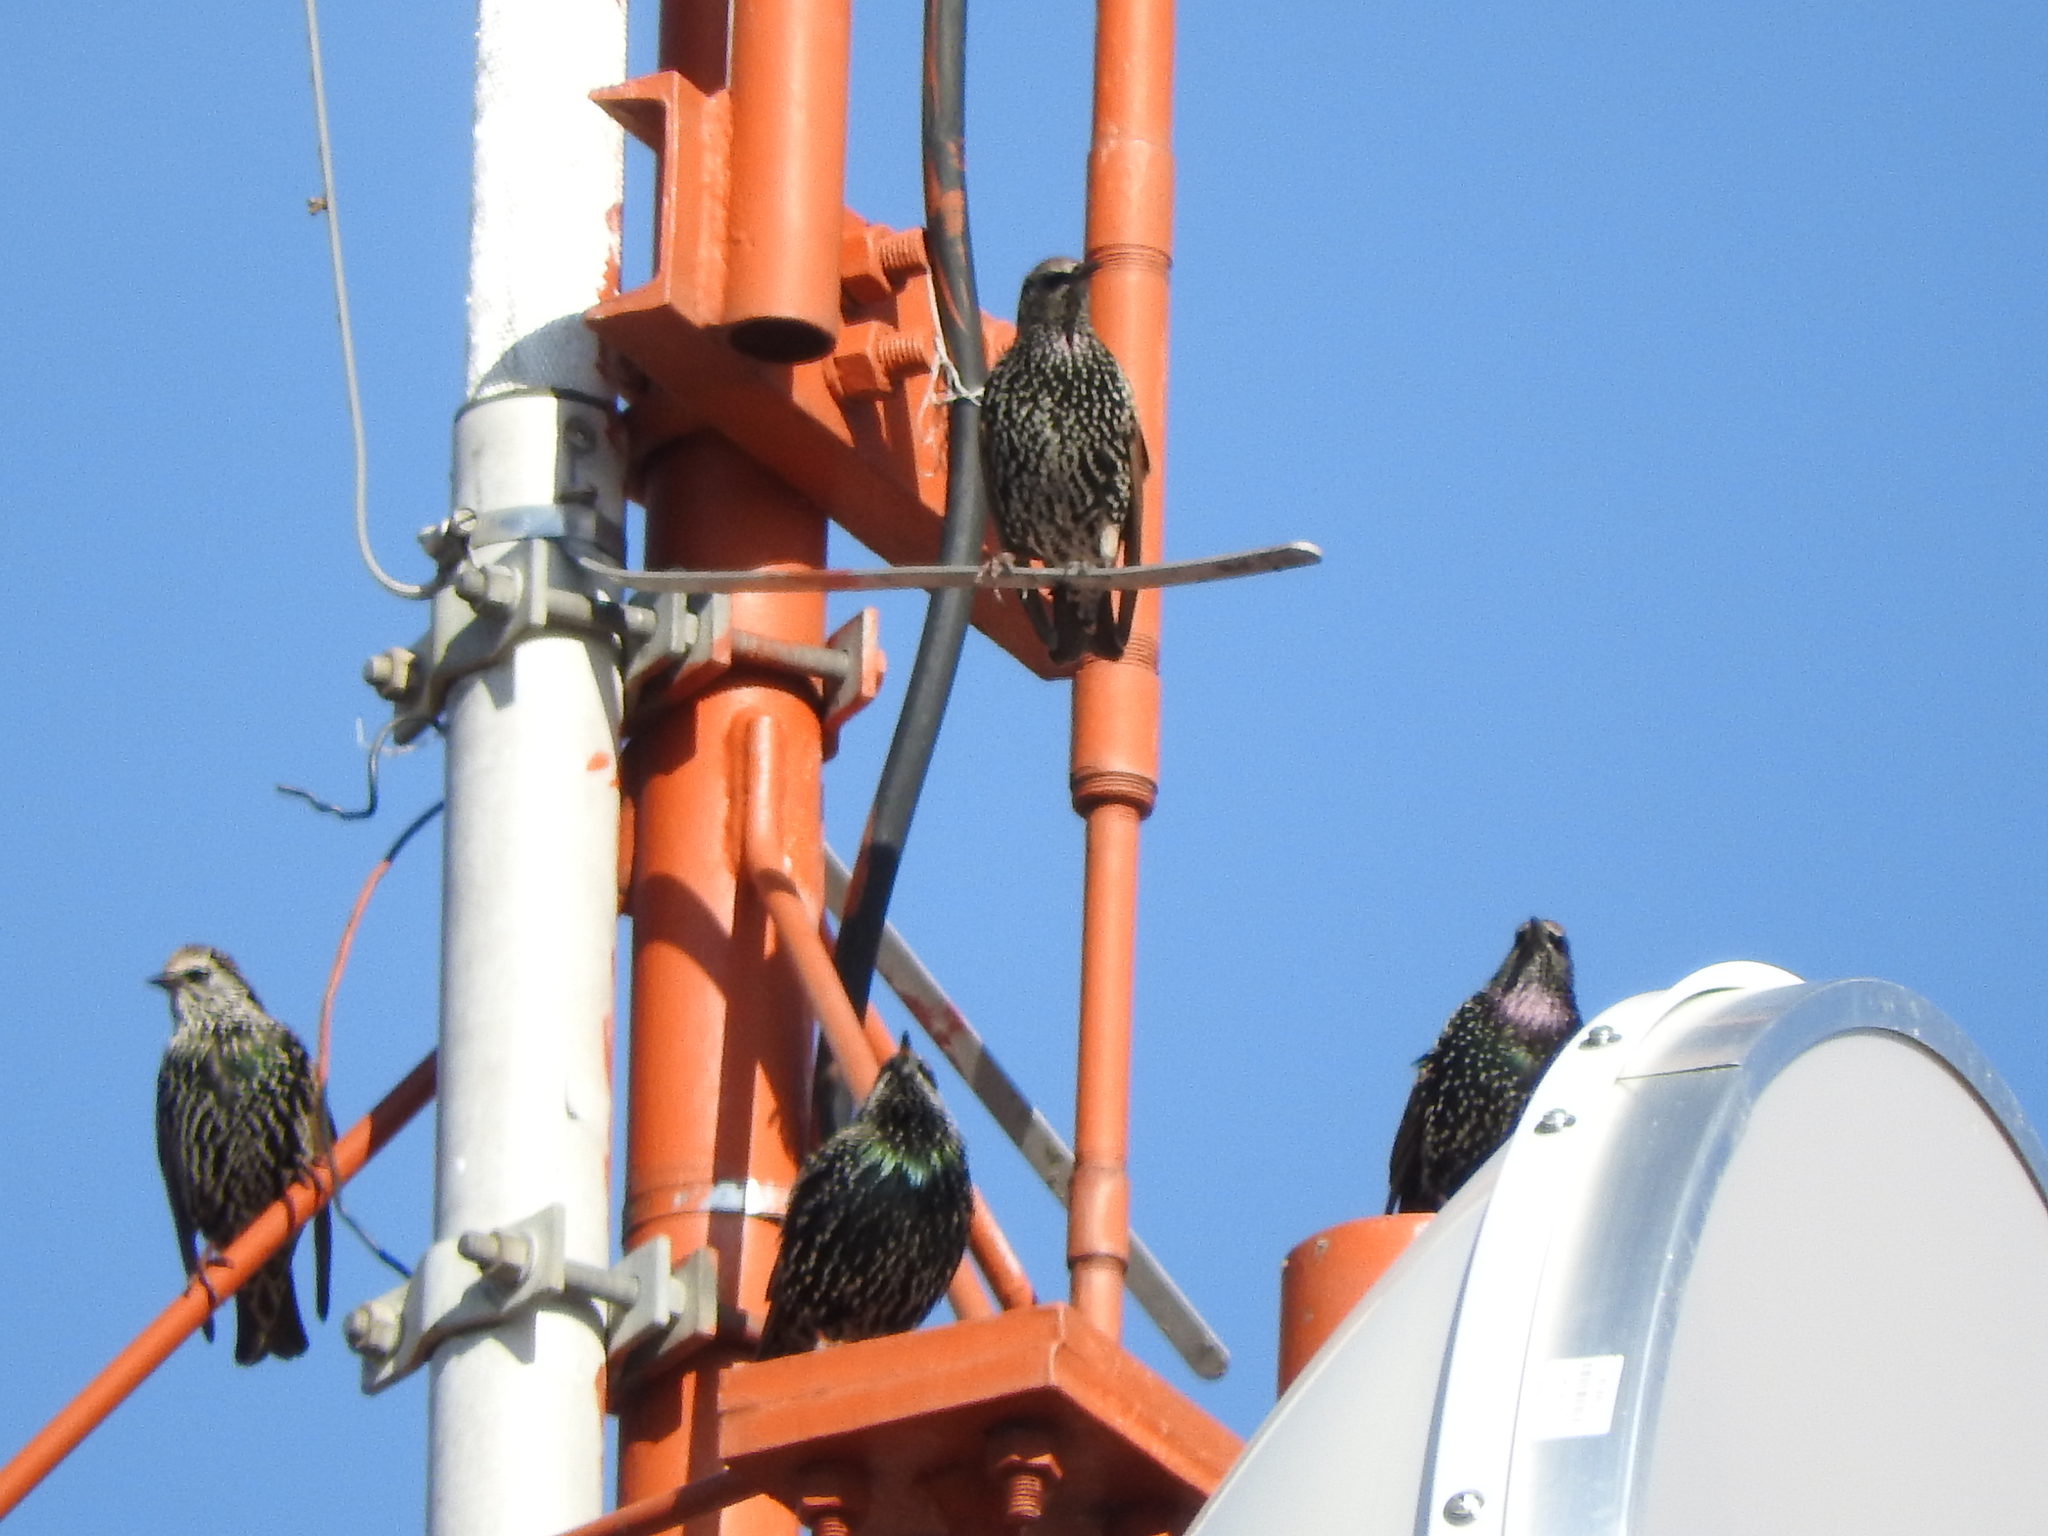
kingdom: Animalia
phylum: Chordata
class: Aves
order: Passeriformes
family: Sturnidae
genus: Sturnus
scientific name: Sturnus vulgaris
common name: Common starling
